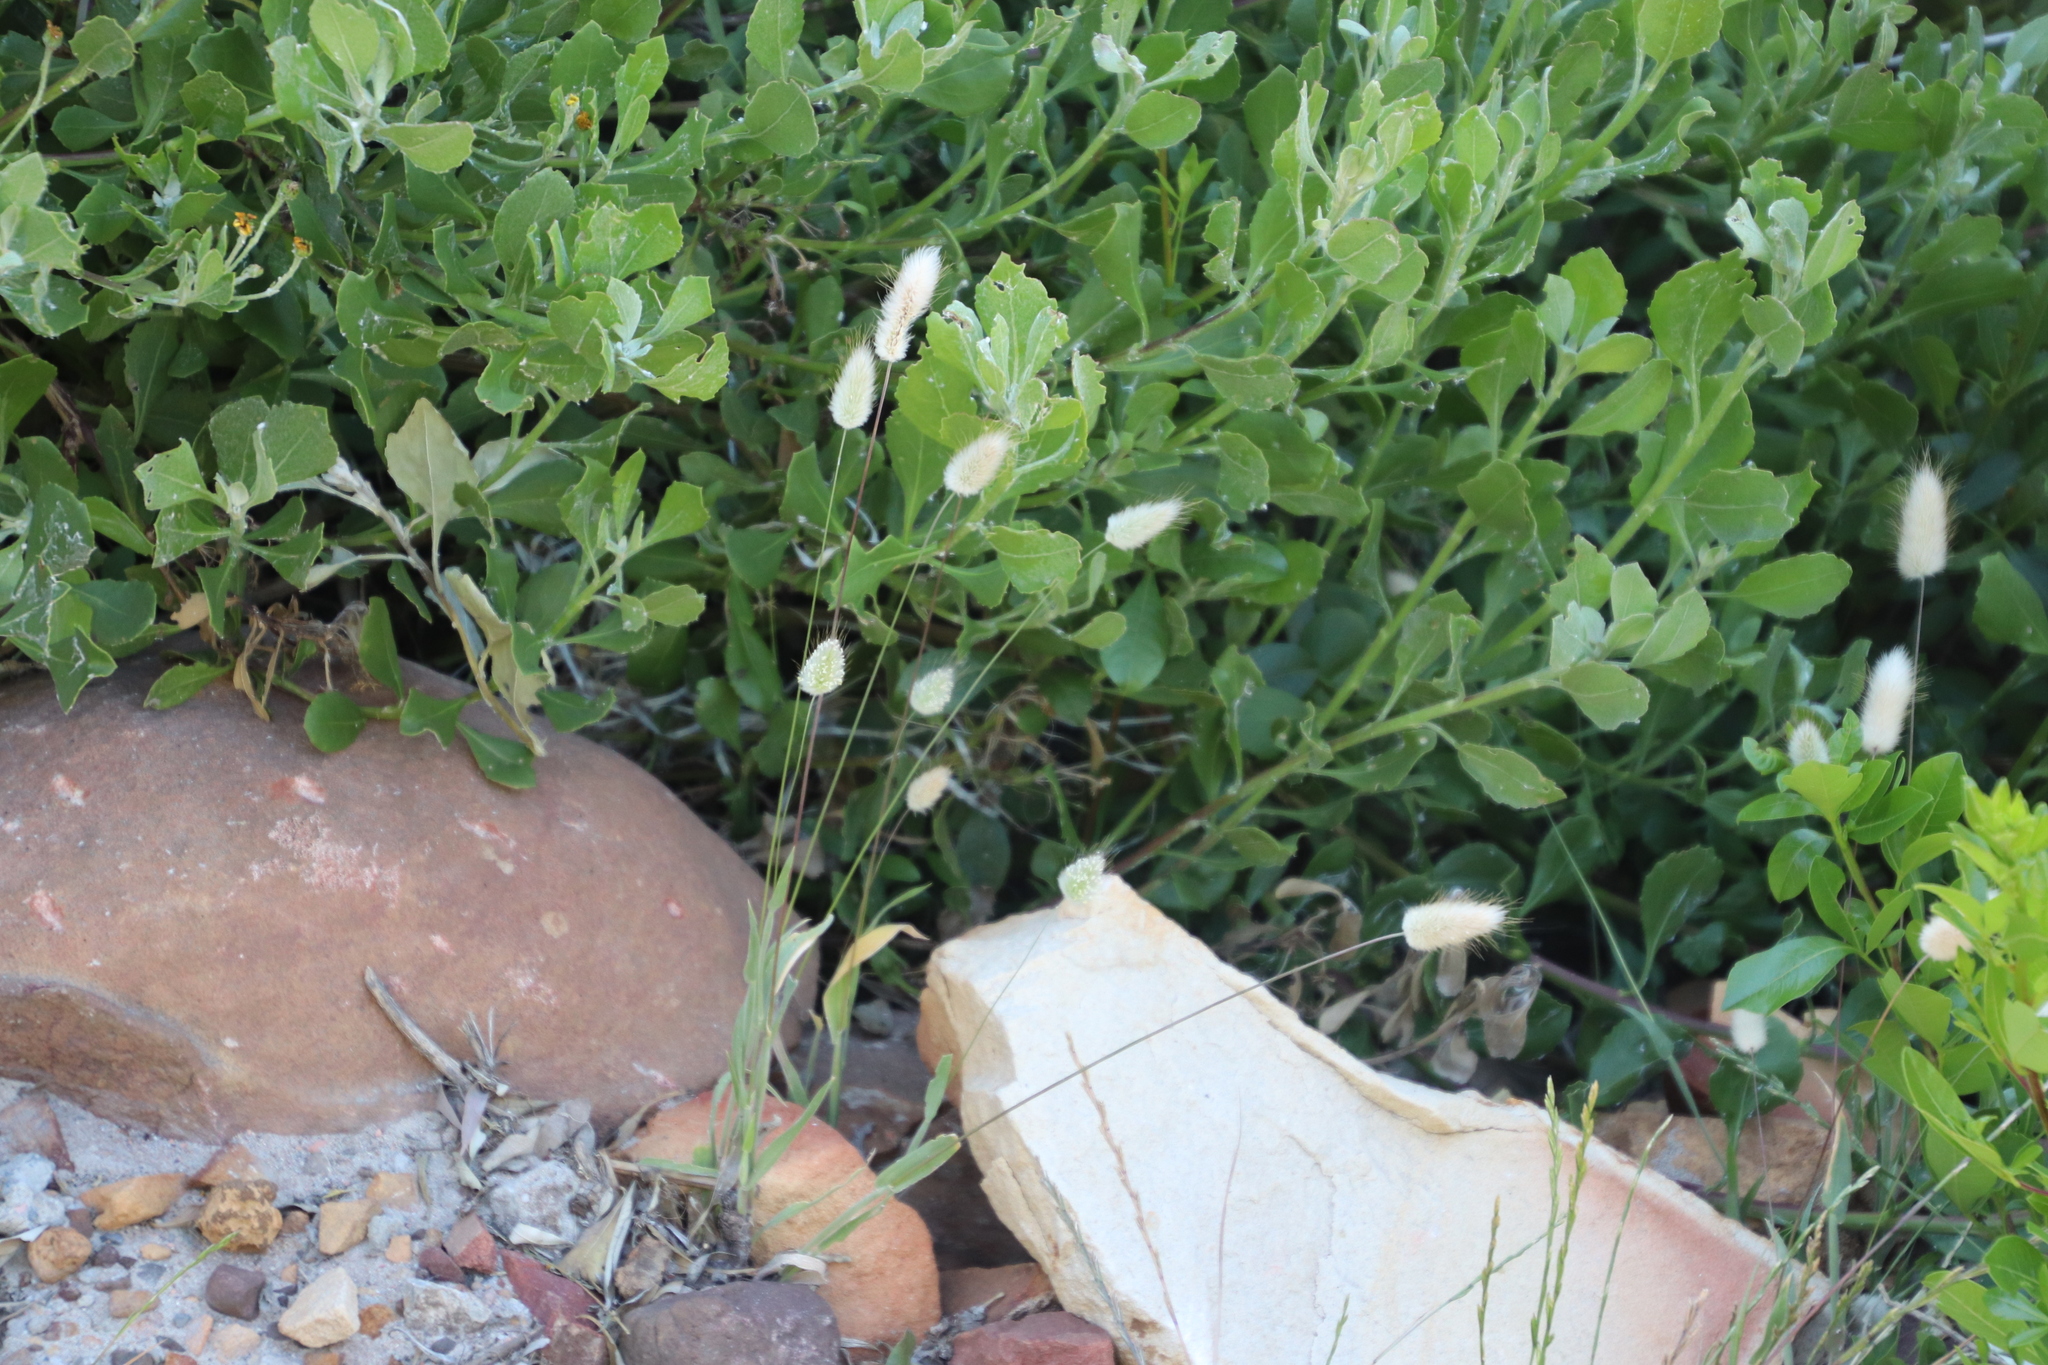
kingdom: Plantae
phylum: Tracheophyta
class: Liliopsida
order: Poales
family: Poaceae
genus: Lagurus
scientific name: Lagurus ovatus
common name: Hare's-tail
